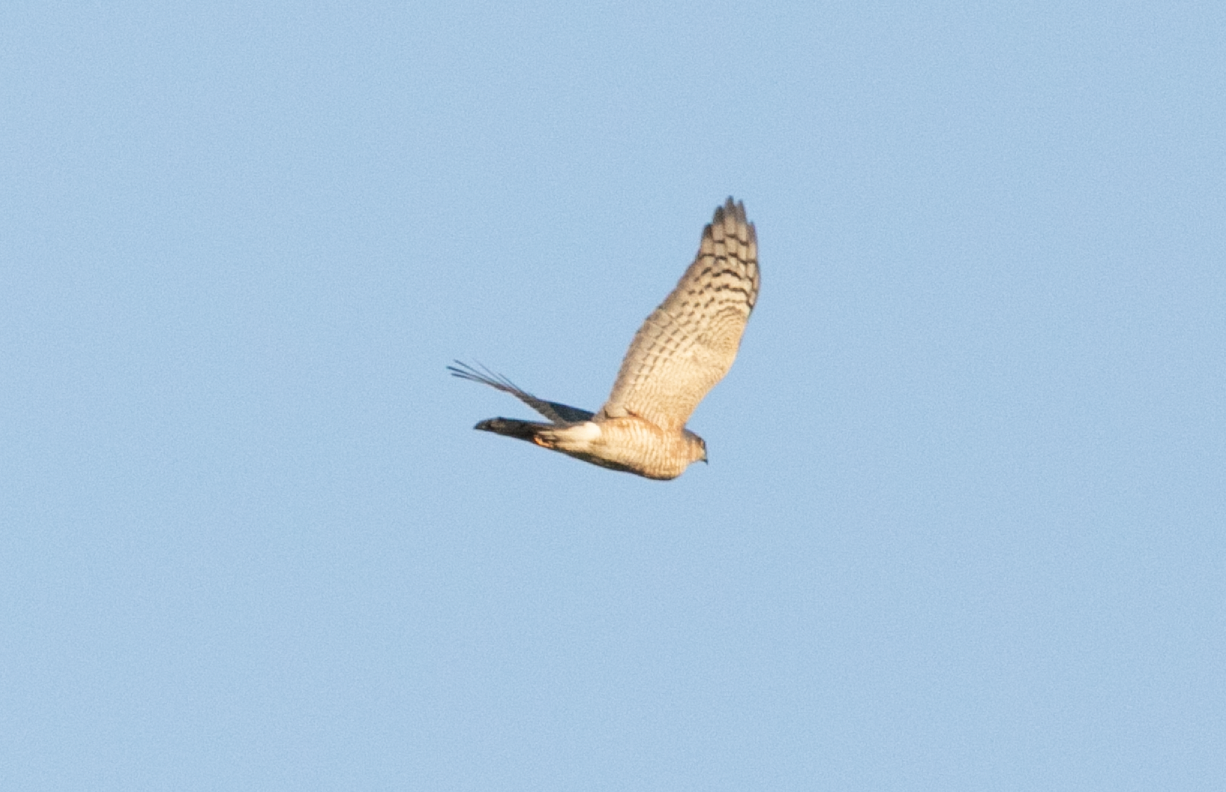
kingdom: Animalia
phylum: Chordata
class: Aves
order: Accipitriformes
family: Accipitridae
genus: Accipiter
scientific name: Accipiter nisus
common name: Eurasian sparrowhawk
